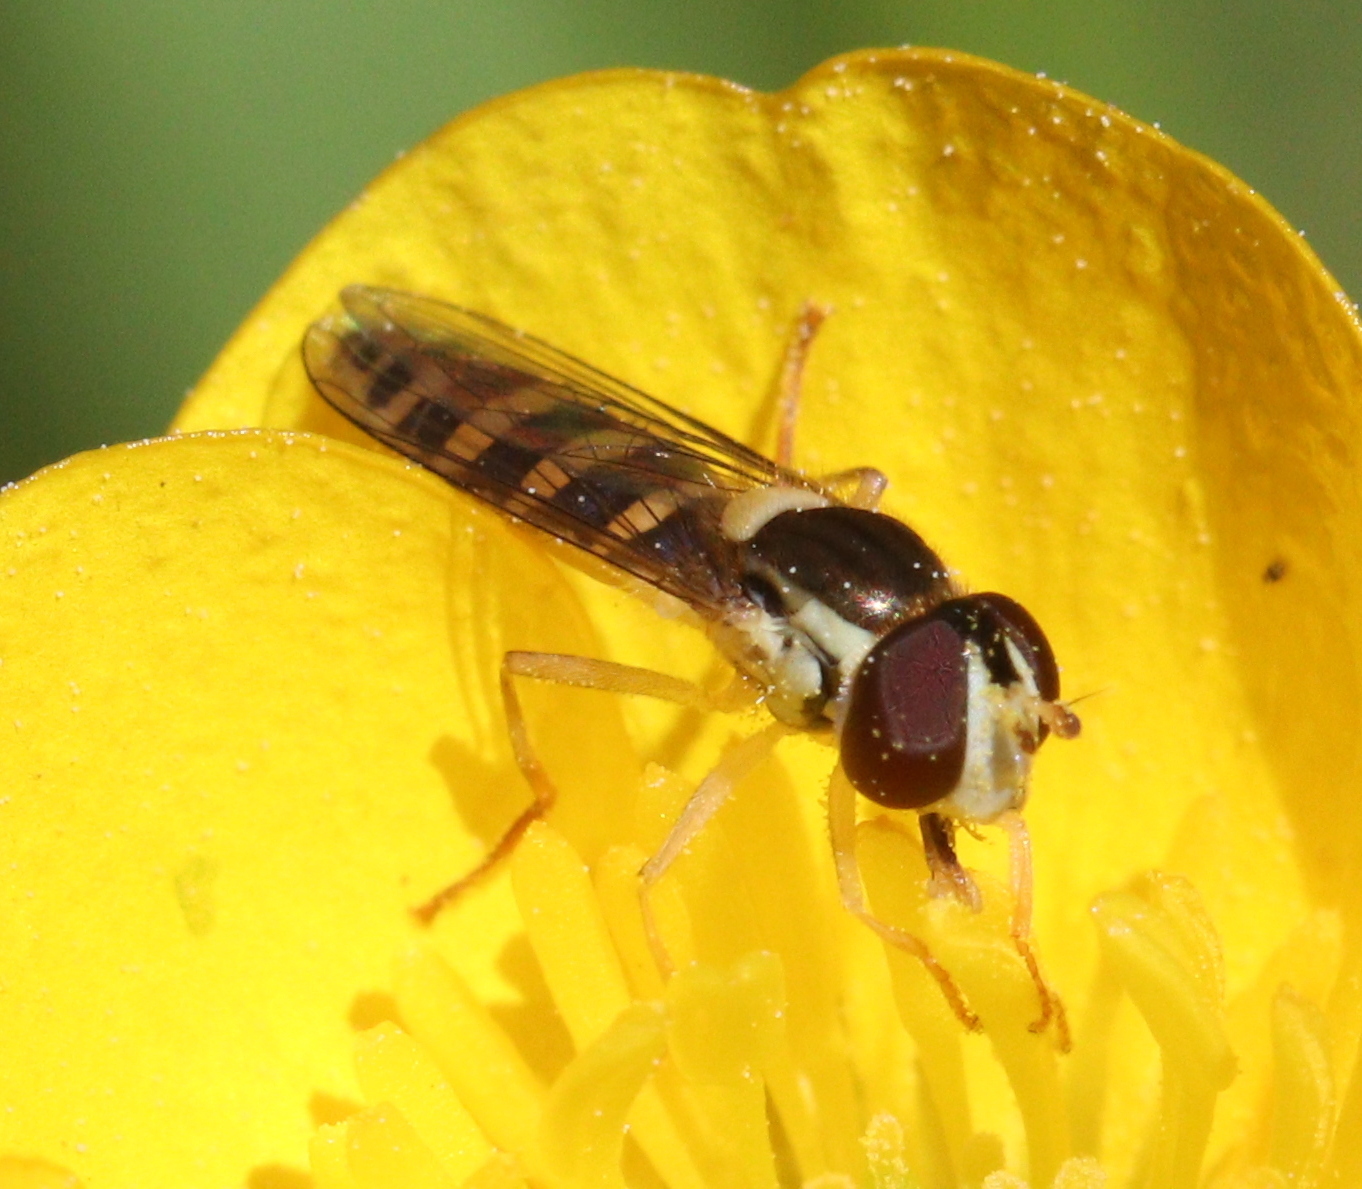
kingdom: Animalia
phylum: Arthropoda
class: Insecta
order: Diptera
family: Syrphidae
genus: Sphaerophoria
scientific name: Sphaerophoria
